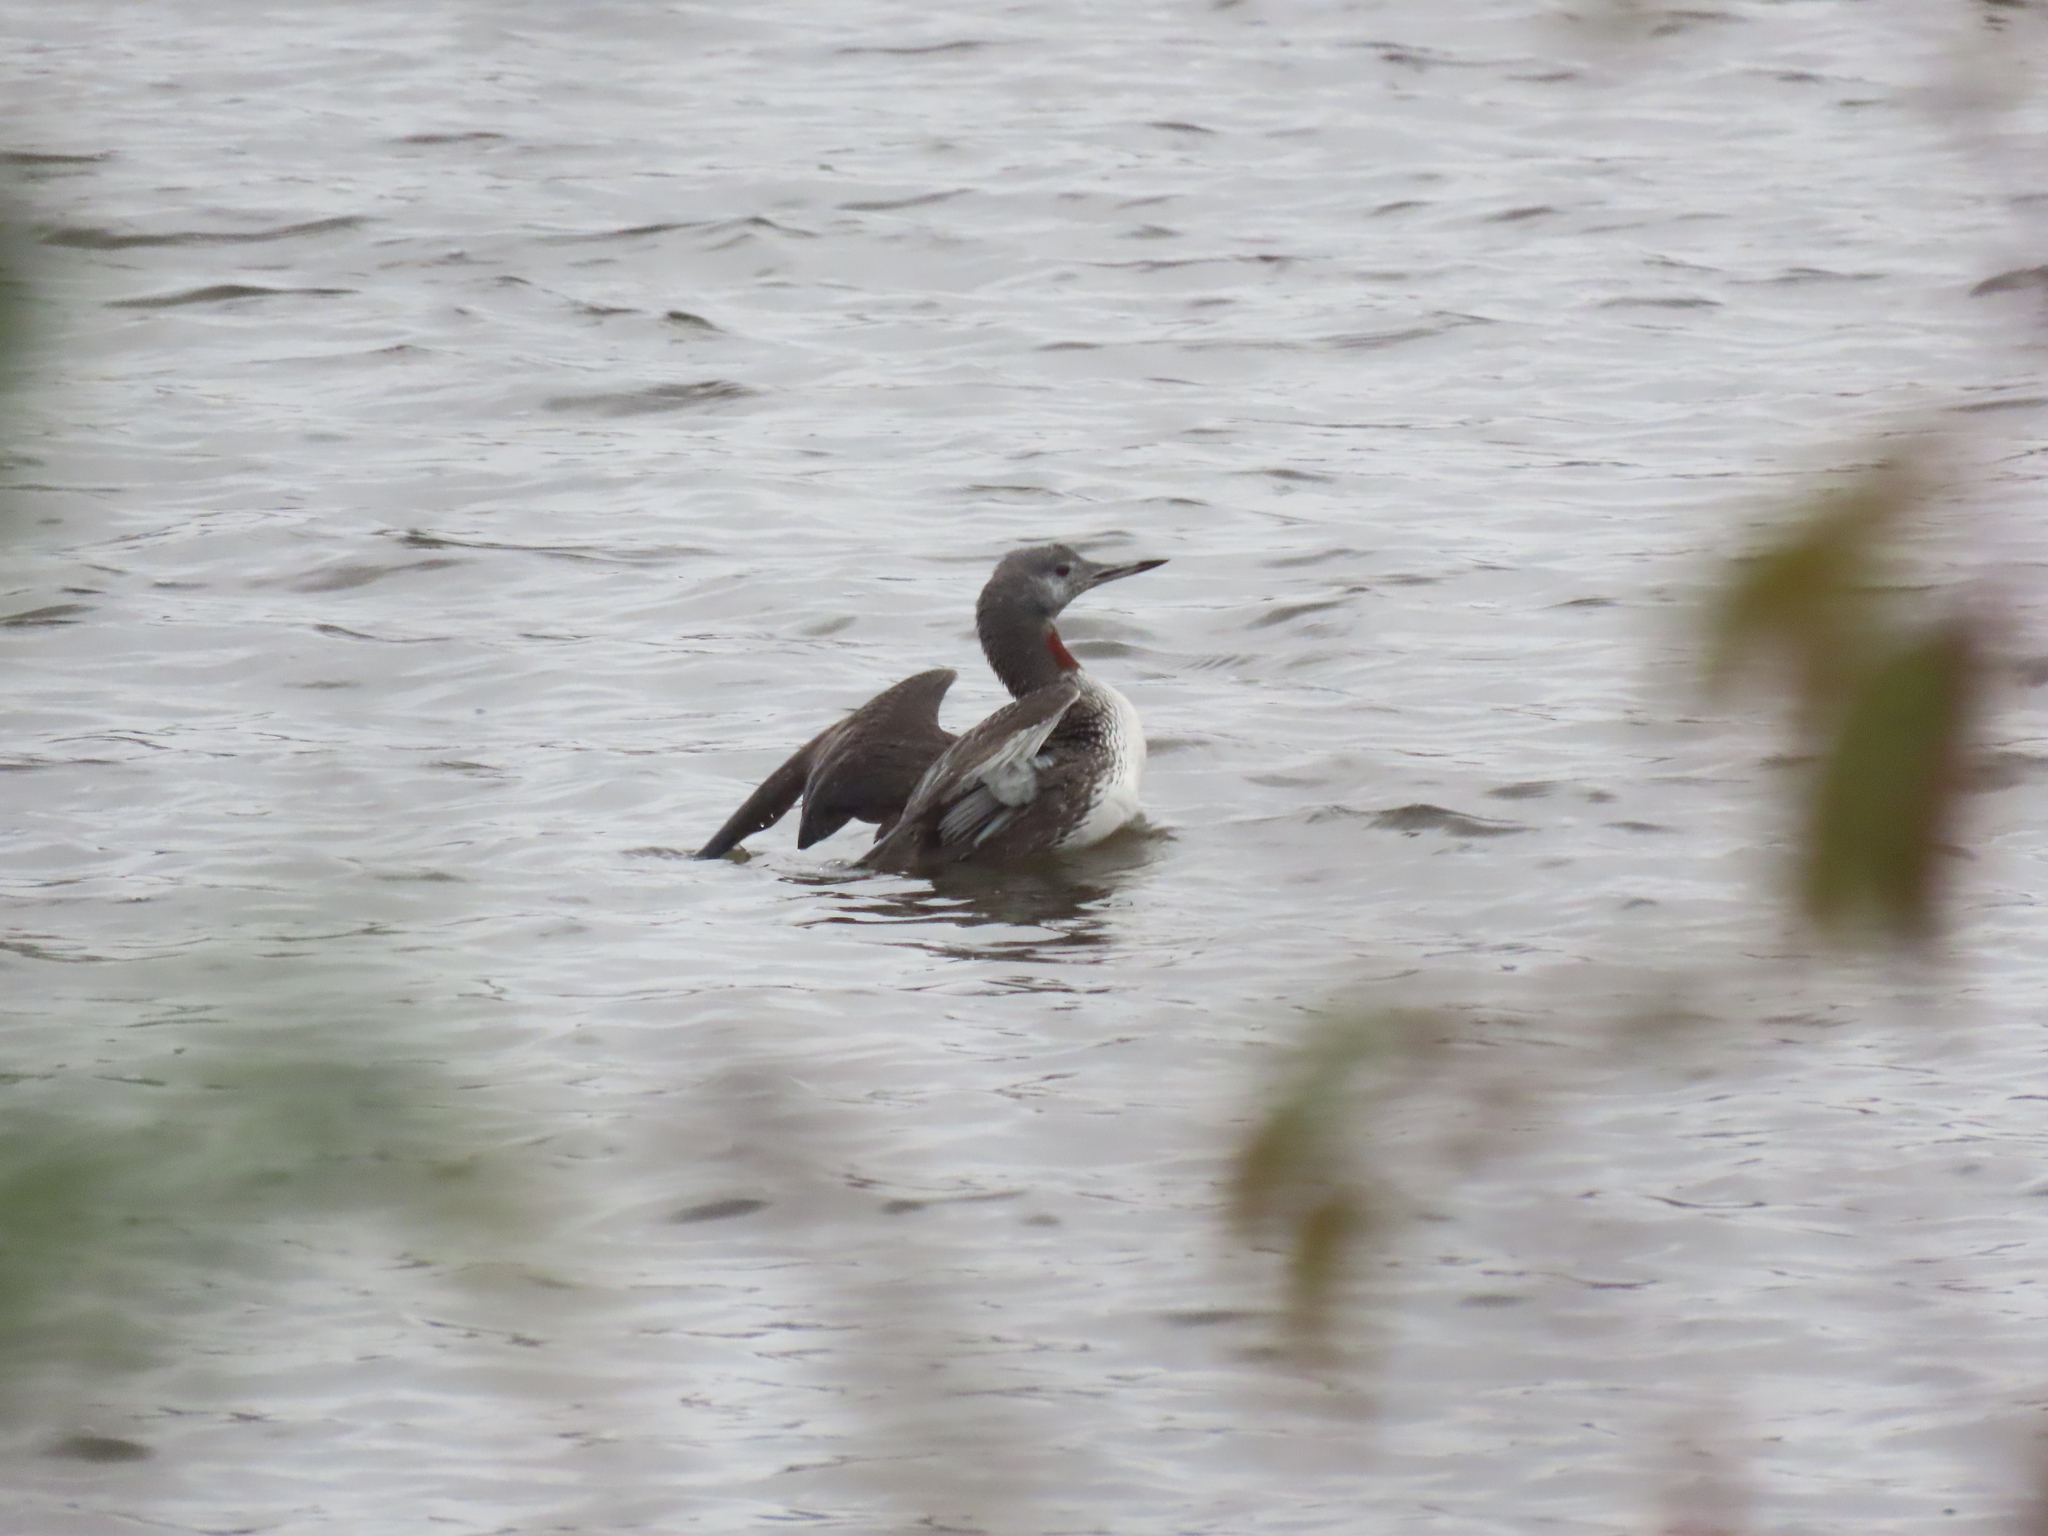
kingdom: Animalia
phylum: Chordata
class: Aves
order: Gaviiformes
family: Gaviidae
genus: Gavia
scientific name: Gavia stellata
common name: Red-throated loon
